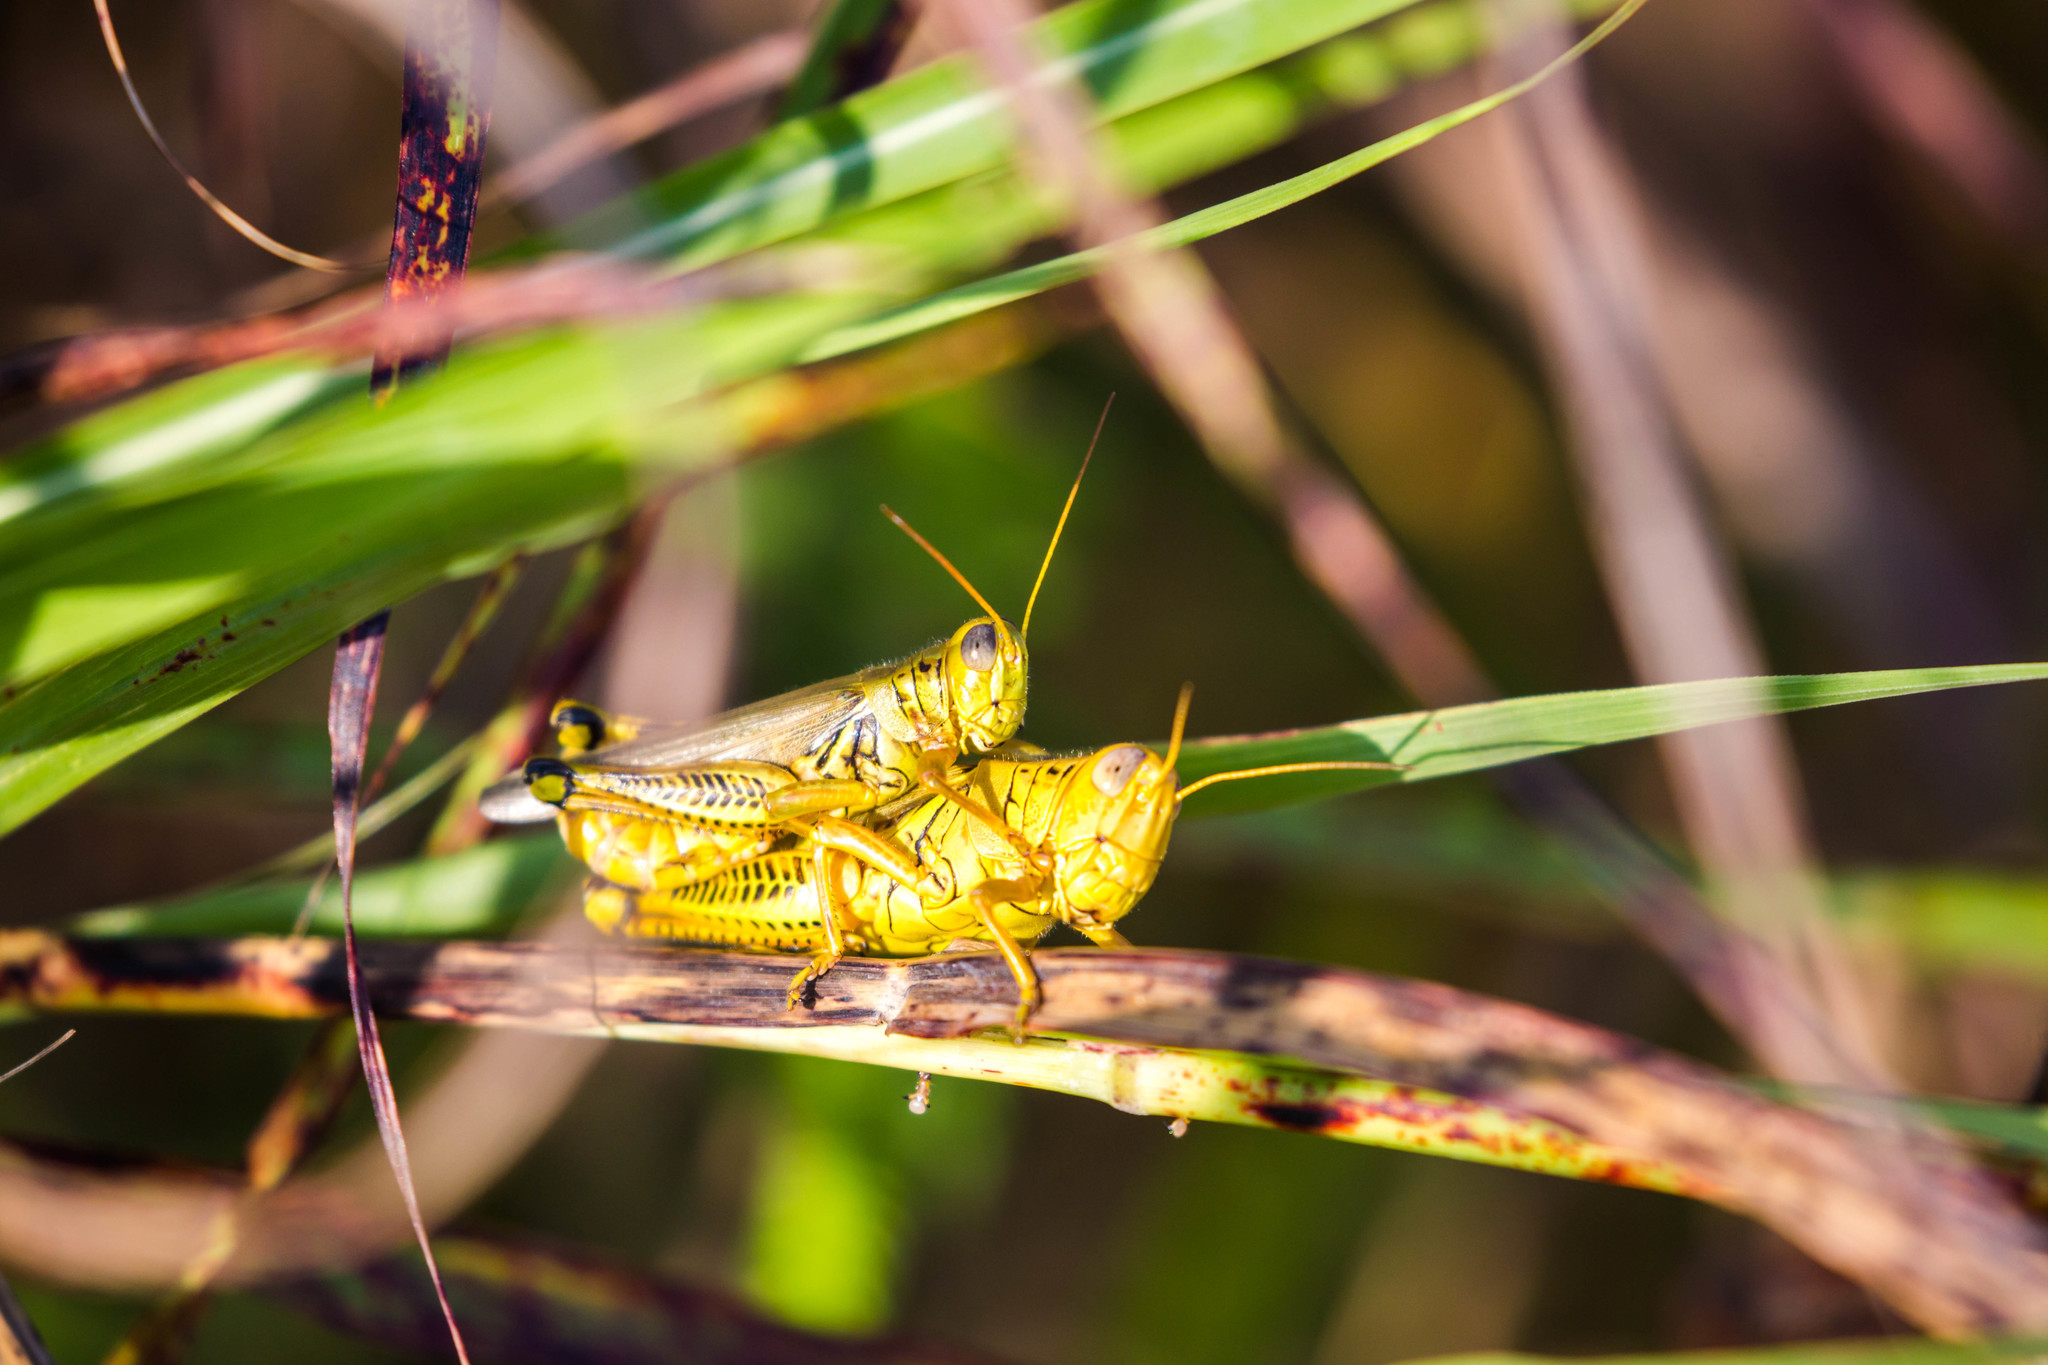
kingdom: Animalia
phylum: Arthropoda
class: Insecta
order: Orthoptera
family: Acrididae
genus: Melanoplus
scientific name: Melanoplus differentialis
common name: Differential grasshopper
